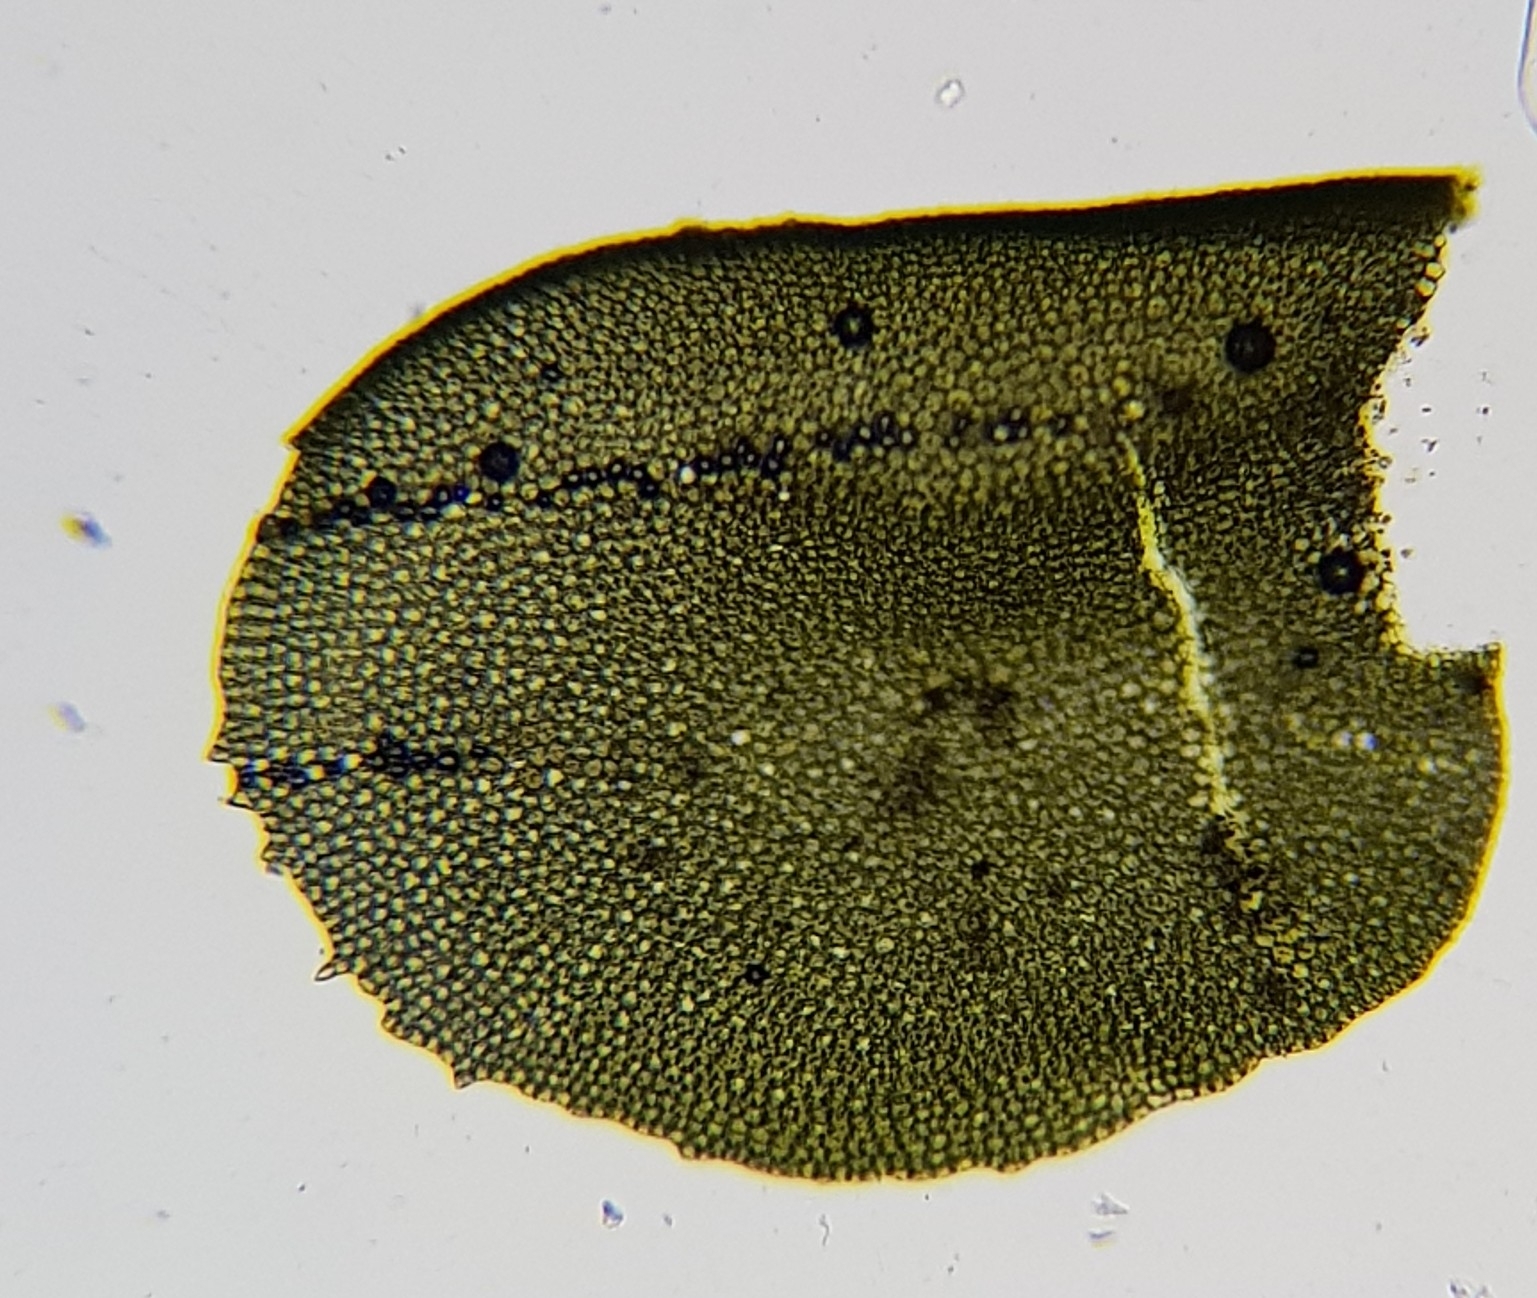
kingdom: Plantae
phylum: Marchantiophyta
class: Jungermanniopsida
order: Jungermanniales
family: Plagiochilaceae
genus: Plagiochila
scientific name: Plagiochila porelloides
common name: Lesser featherwort
